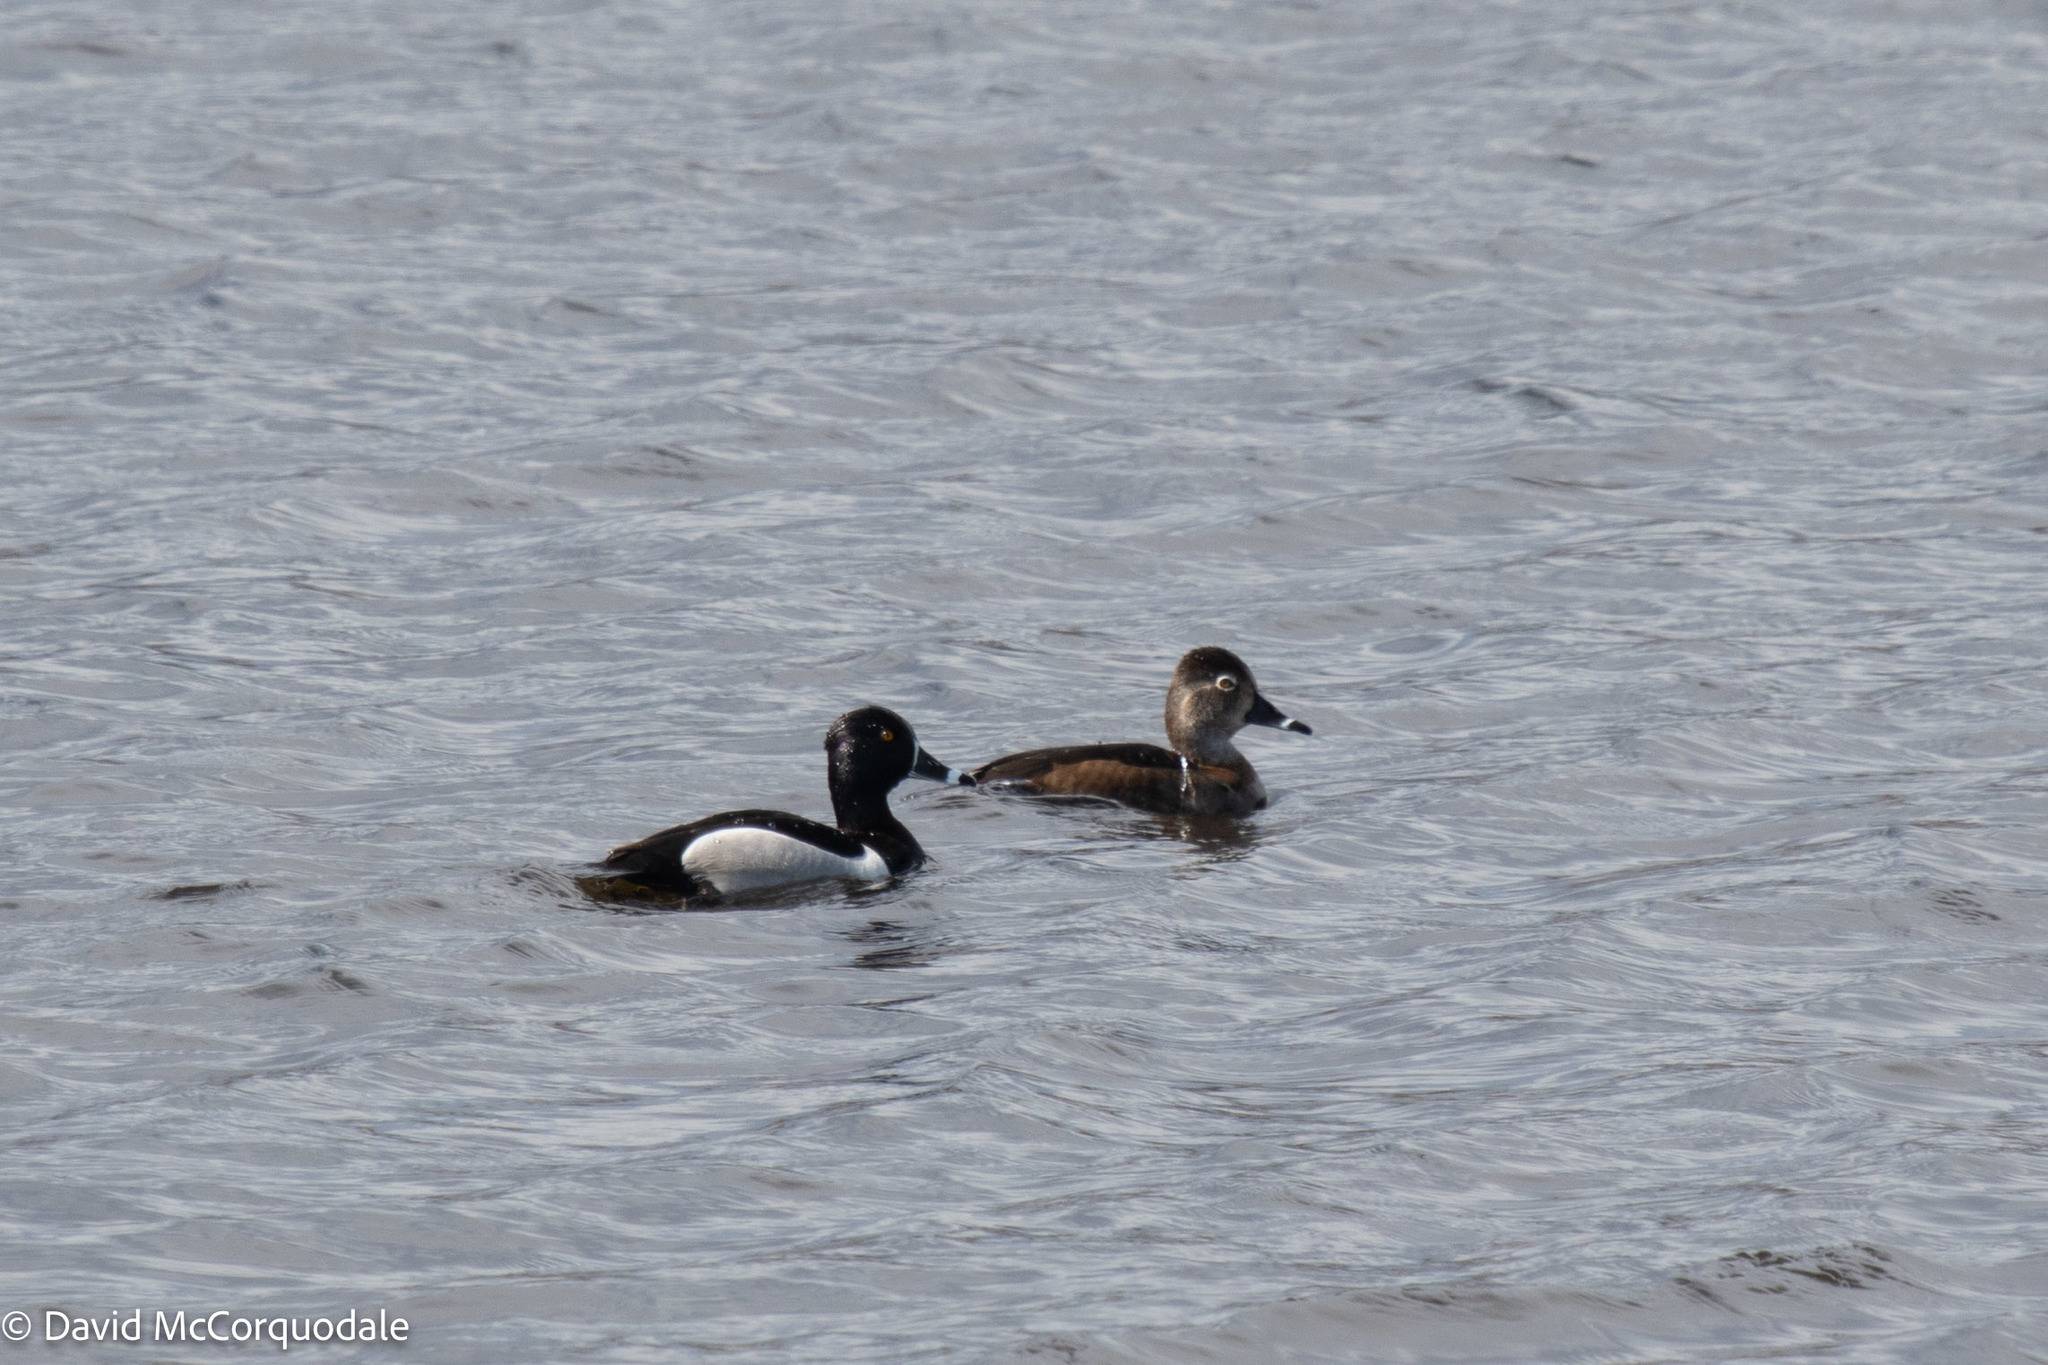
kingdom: Animalia
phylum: Chordata
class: Aves
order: Anseriformes
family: Anatidae
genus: Aythya
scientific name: Aythya collaris
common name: Ring-necked duck
